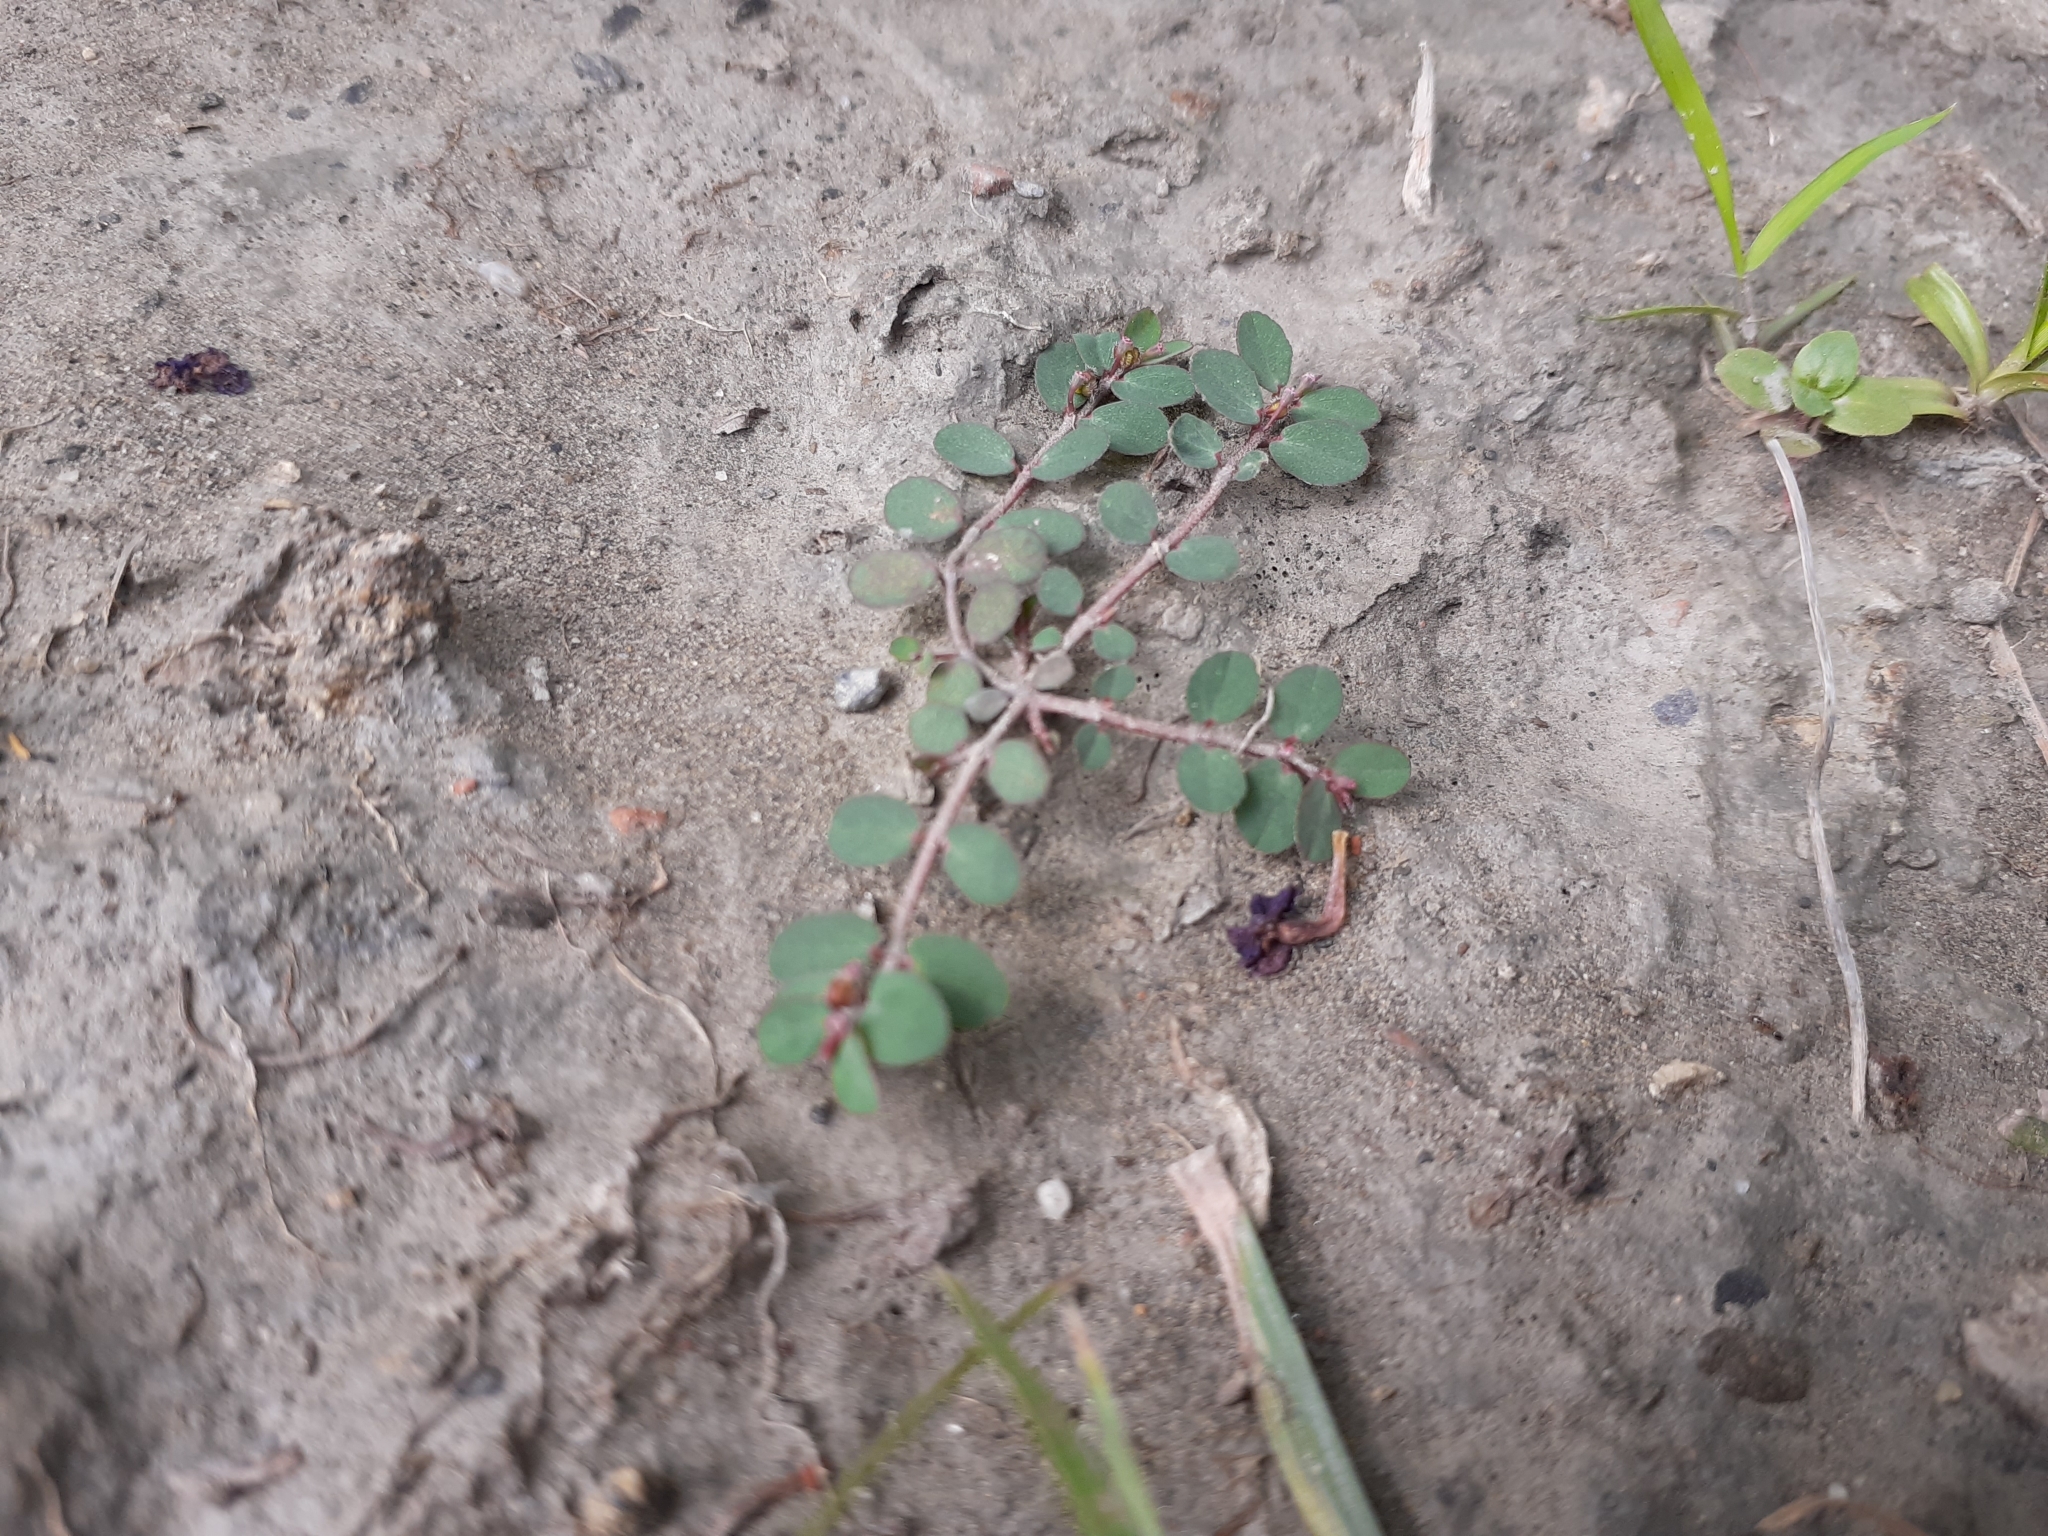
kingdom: Plantae
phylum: Tracheophyta
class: Magnoliopsida
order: Malpighiales
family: Euphorbiaceae
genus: Euphorbia
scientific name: Euphorbia prostrata
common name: Prostrate sandmat
